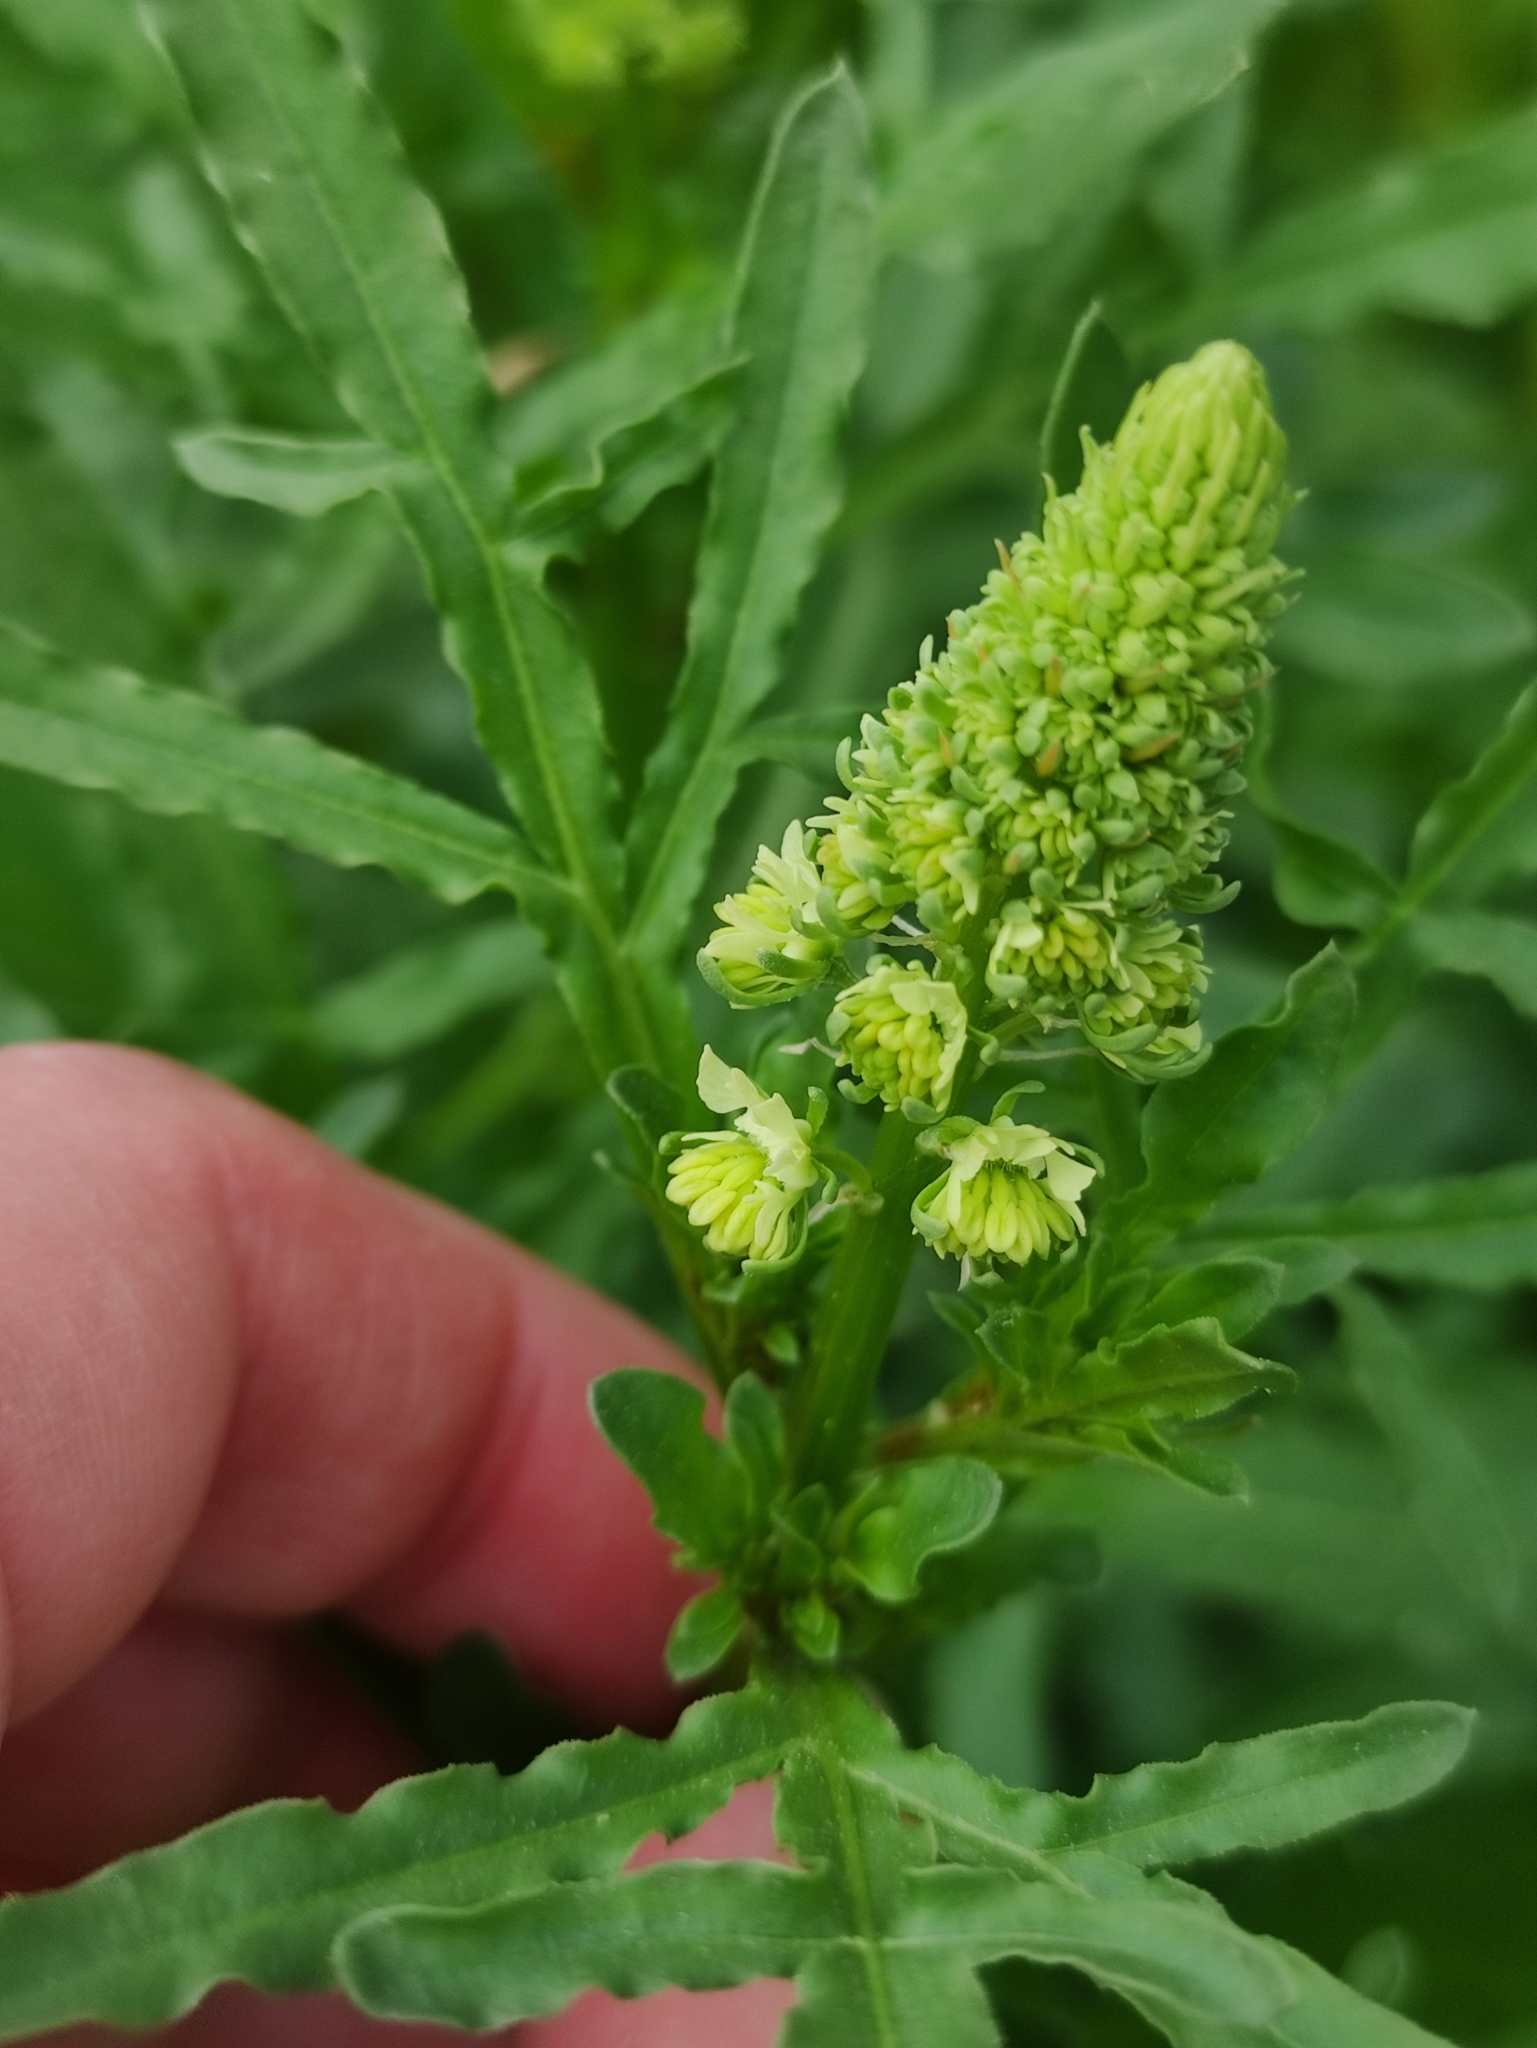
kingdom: Plantae
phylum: Tracheophyta
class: Magnoliopsida
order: Brassicales
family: Resedaceae
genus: Reseda
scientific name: Reseda lutea
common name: Wild mignonette
